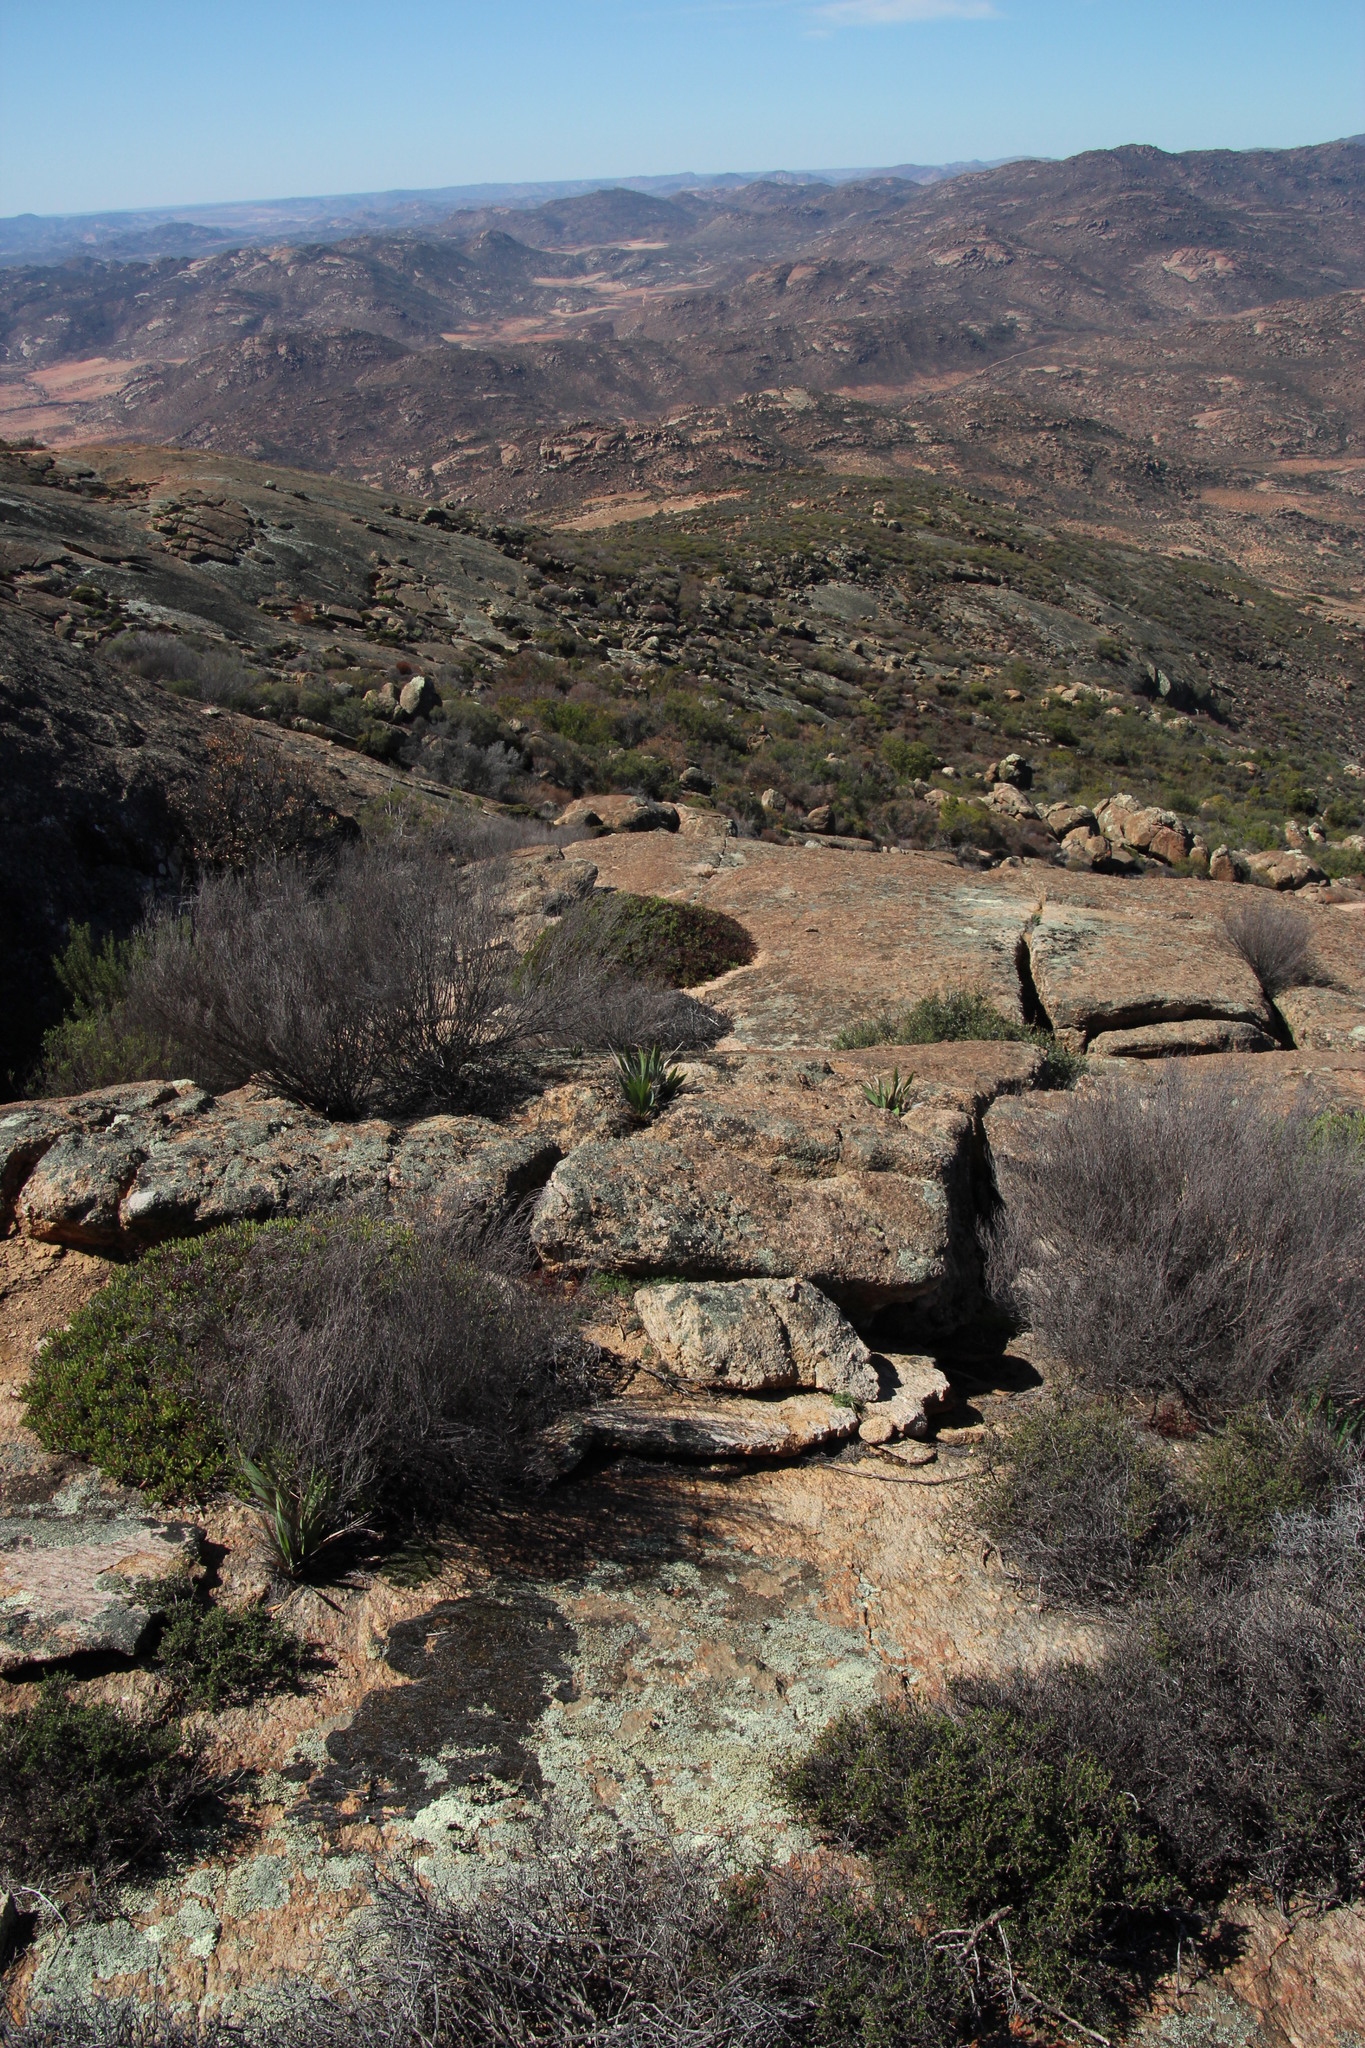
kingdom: Plantae
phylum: Tracheophyta
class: Liliopsida
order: Asparagales
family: Iridaceae
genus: Babiana
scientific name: Babiana dregei
